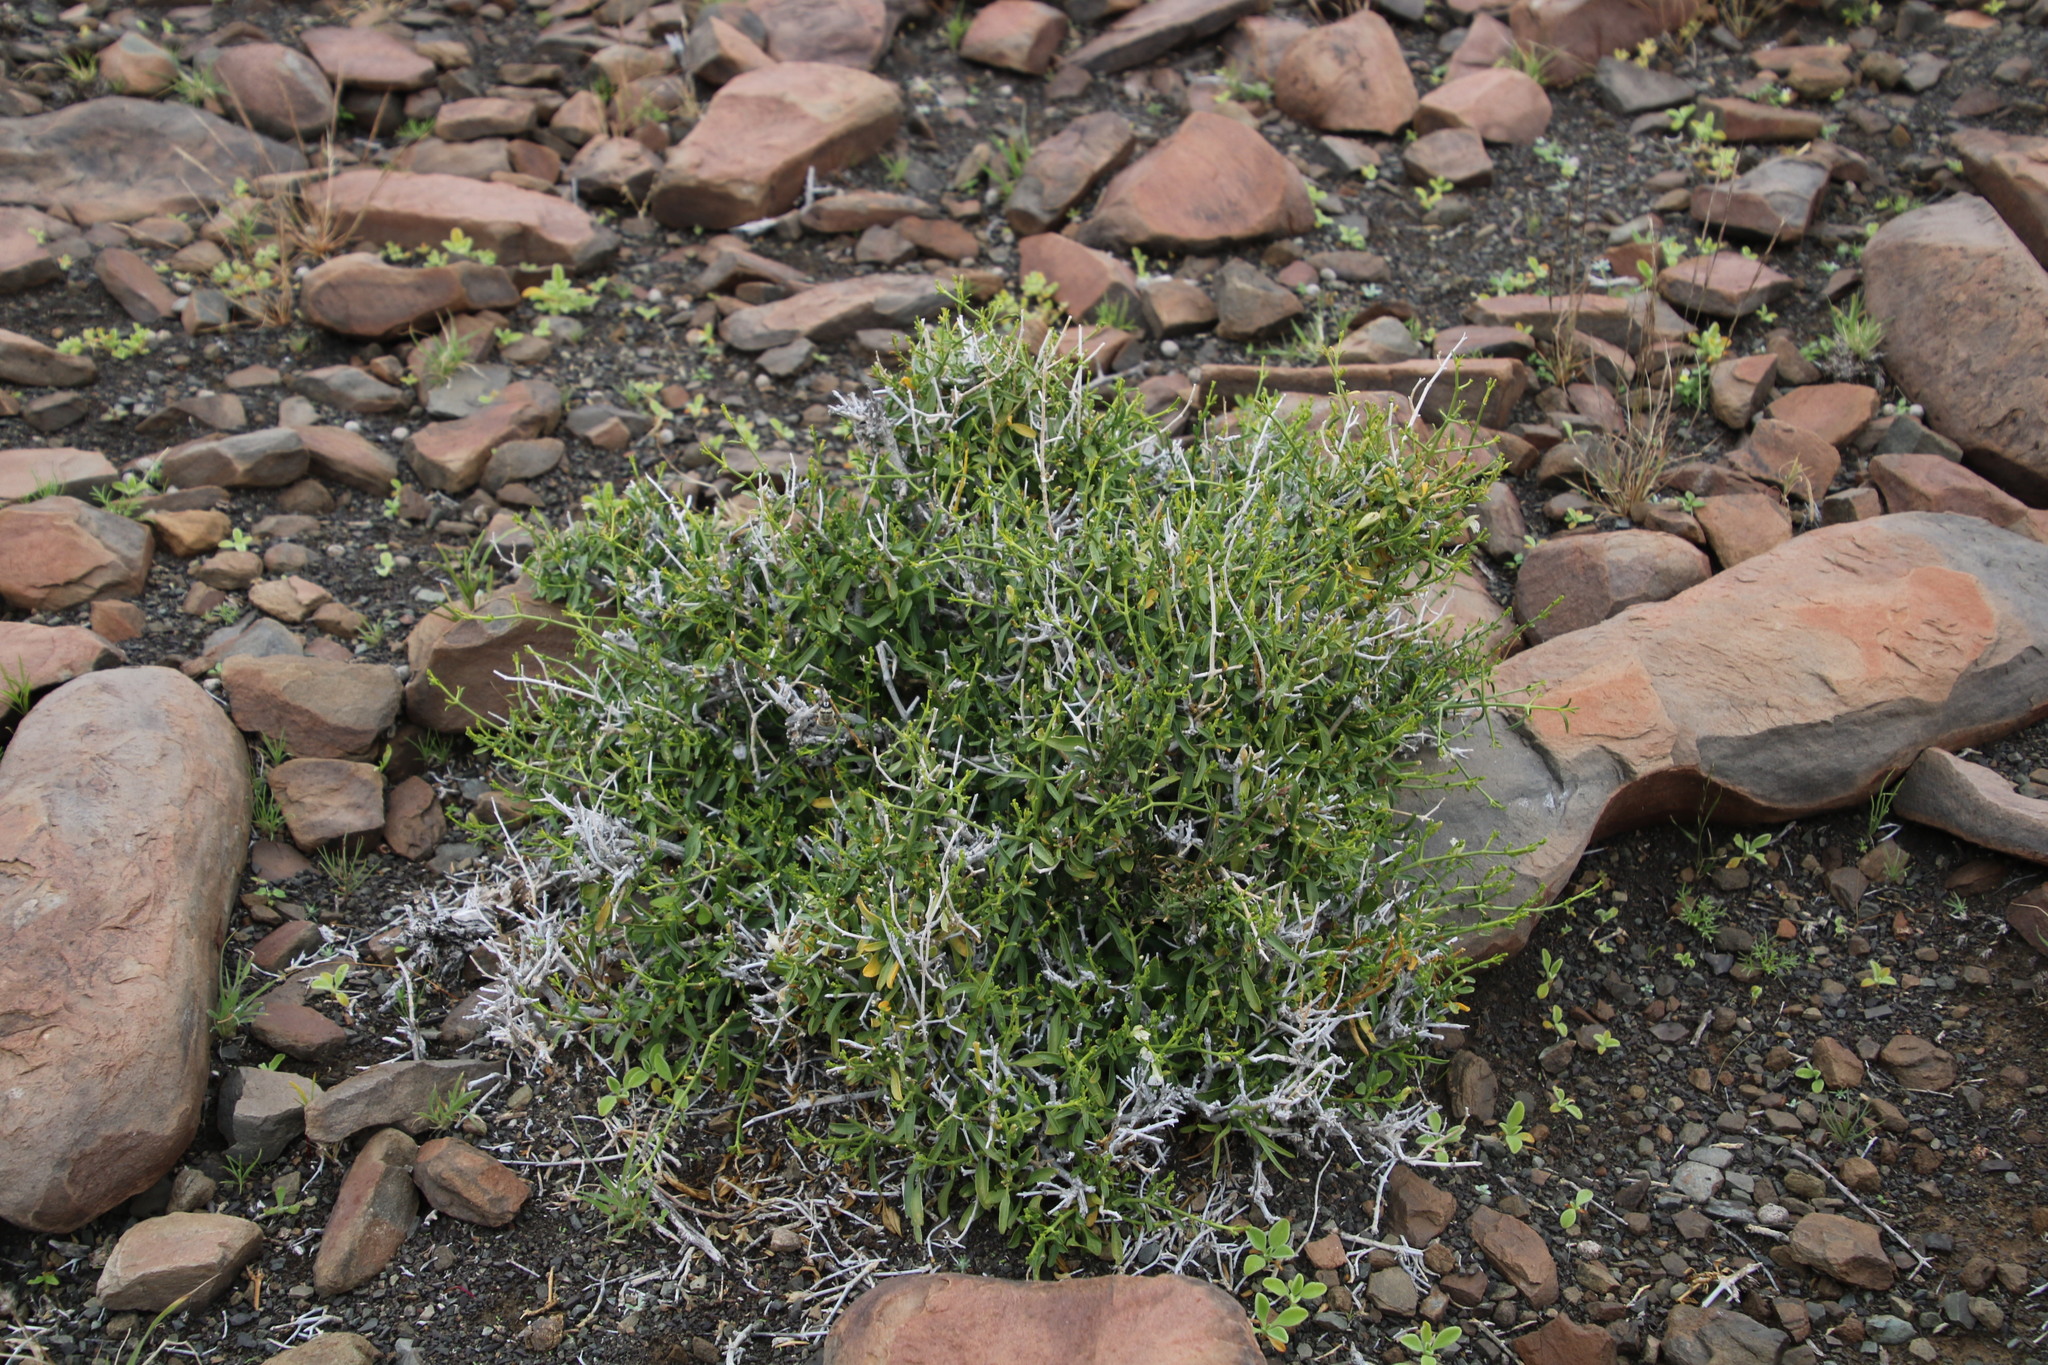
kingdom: Plantae
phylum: Tracheophyta
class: Magnoliopsida
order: Lamiales
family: Acanthaceae
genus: Pogonospermum
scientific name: Pogonospermum
